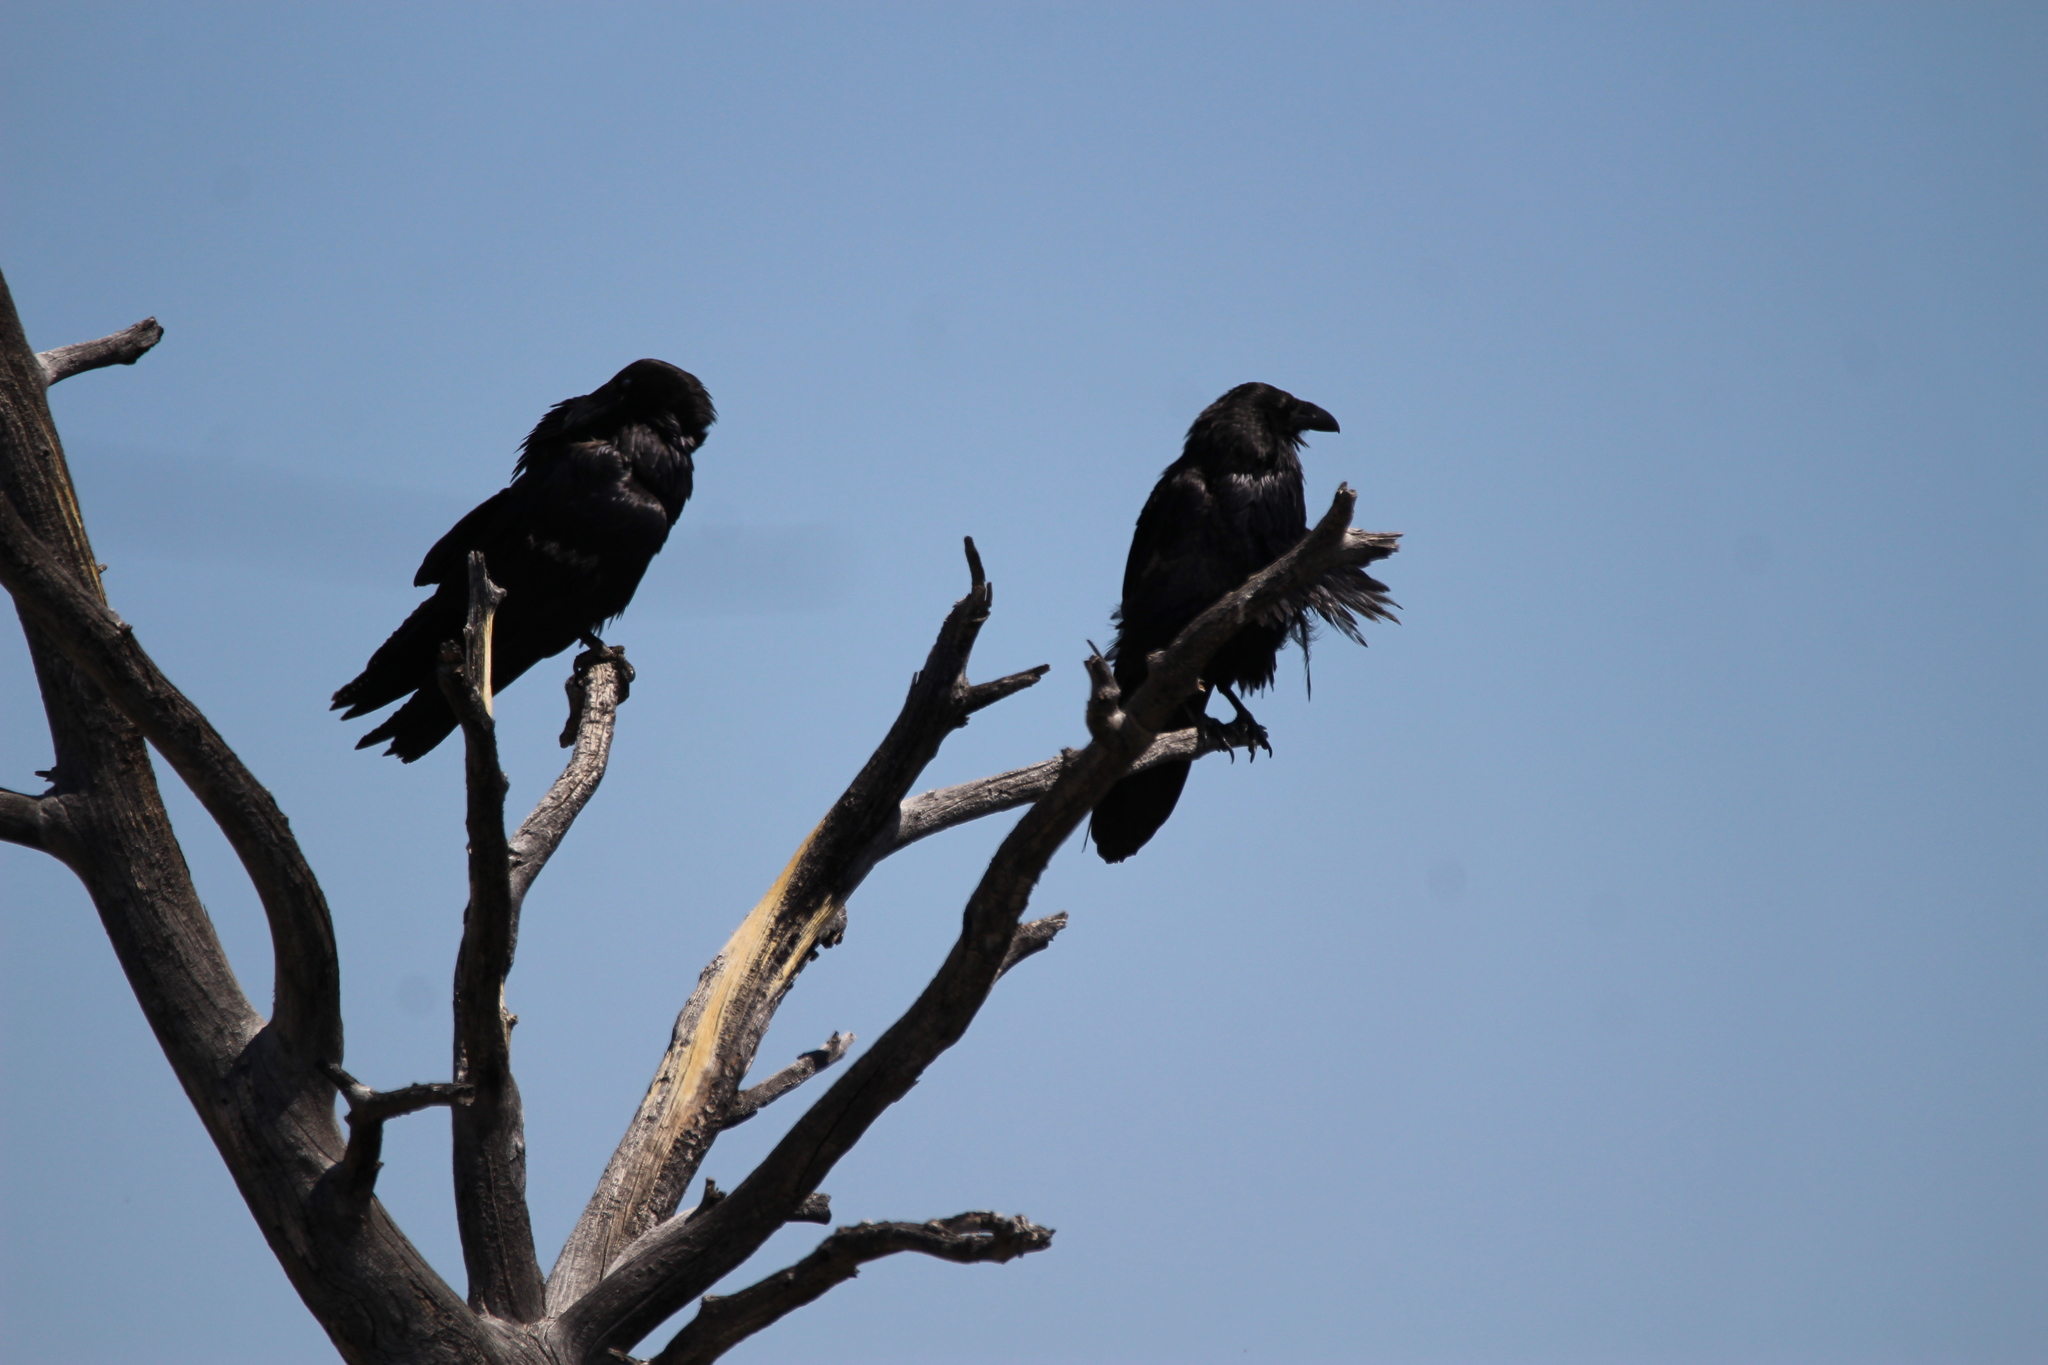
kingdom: Animalia
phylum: Chordata
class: Aves
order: Passeriformes
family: Corvidae
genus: Corvus
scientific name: Corvus corax
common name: Common raven
